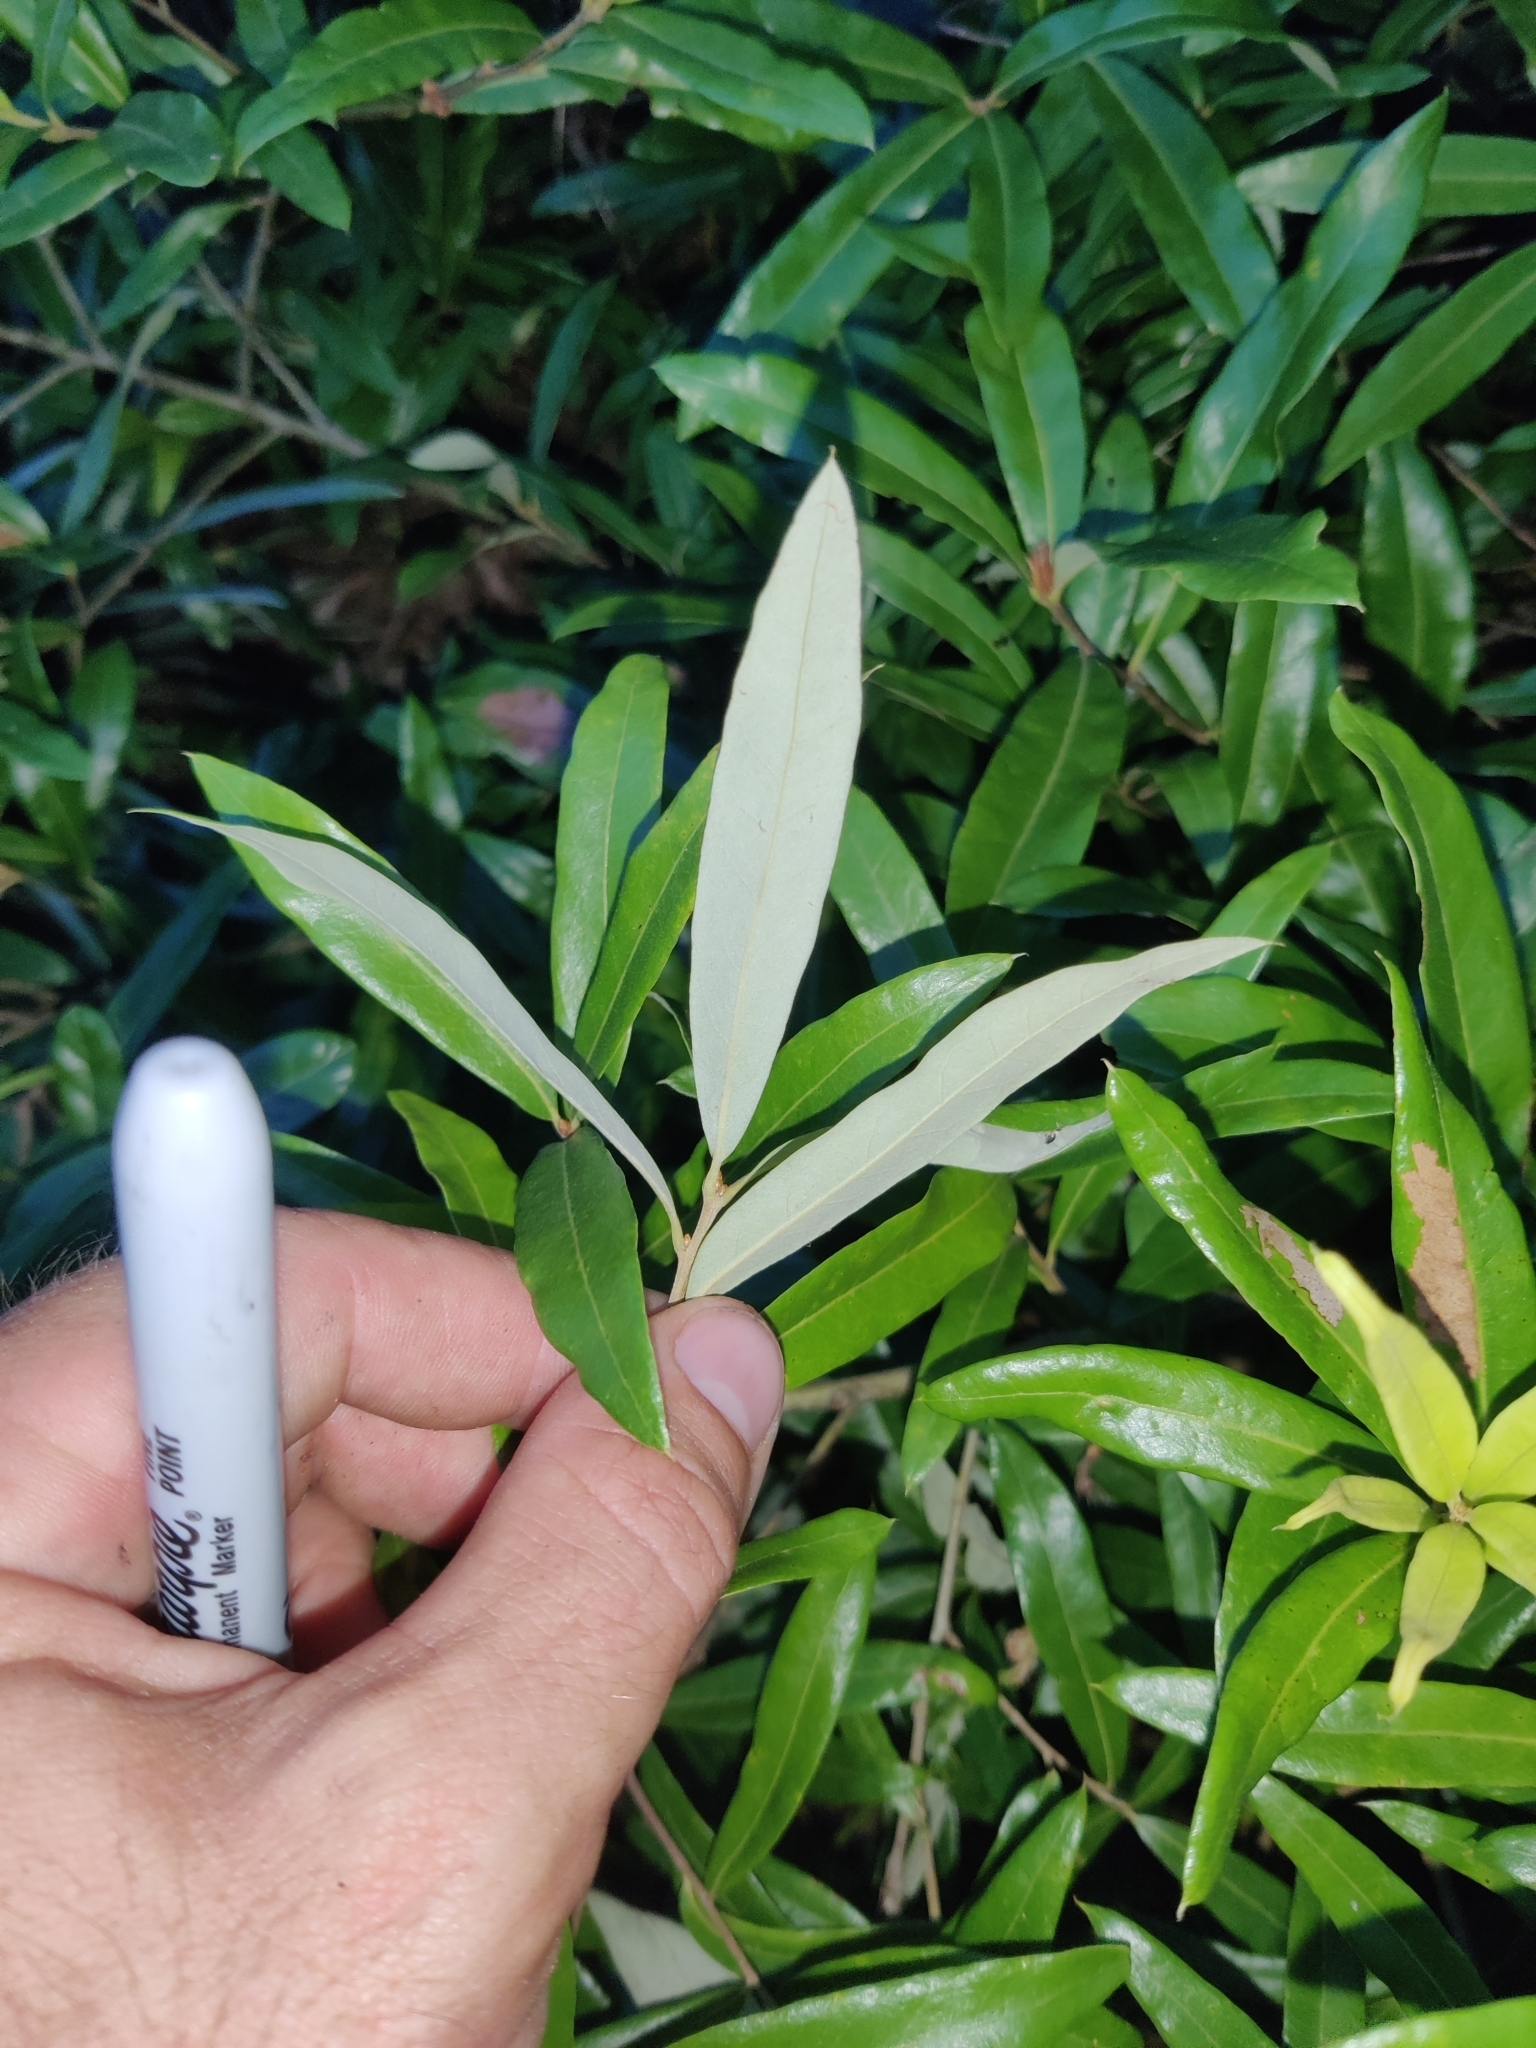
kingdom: Plantae
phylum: Tracheophyta
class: Magnoliopsida
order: Fagales
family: Fagaceae
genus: Quercus
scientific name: Quercus pumila
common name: Runner oak
